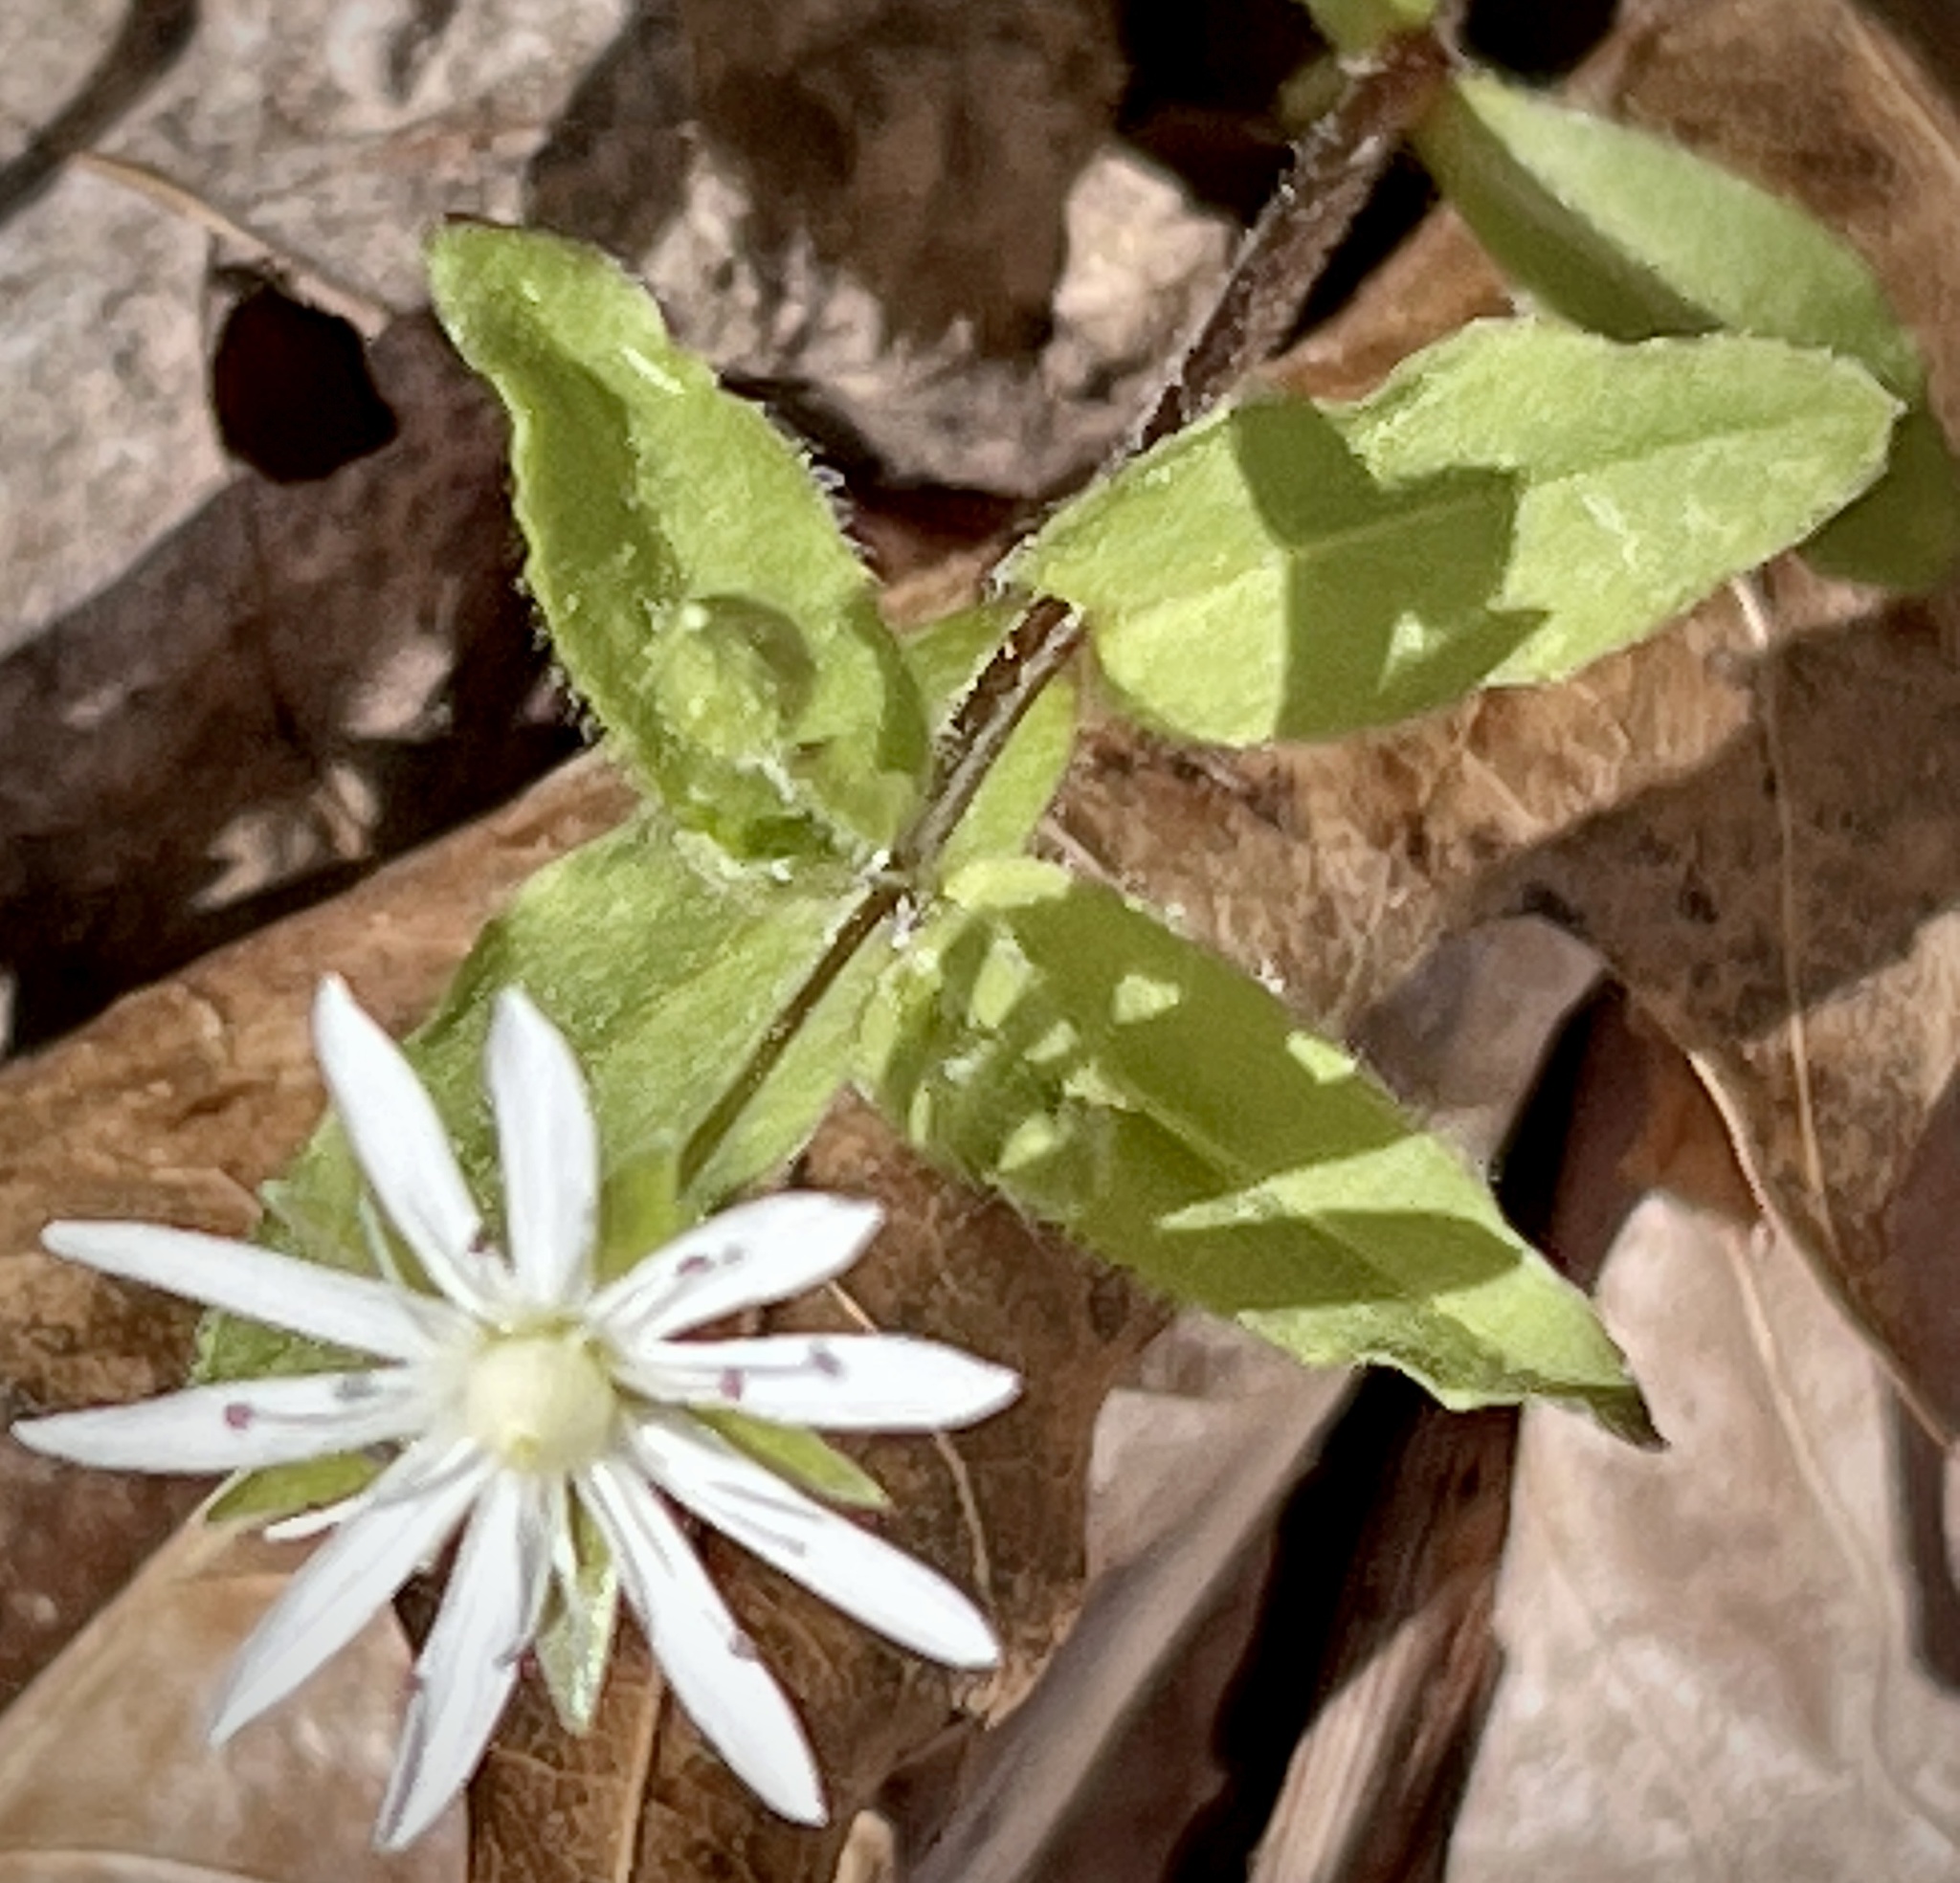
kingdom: Plantae
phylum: Tracheophyta
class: Magnoliopsida
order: Caryophyllales
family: Caryophyllaceae
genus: Stellaria
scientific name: Stellaria pubera
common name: Star chickweed
